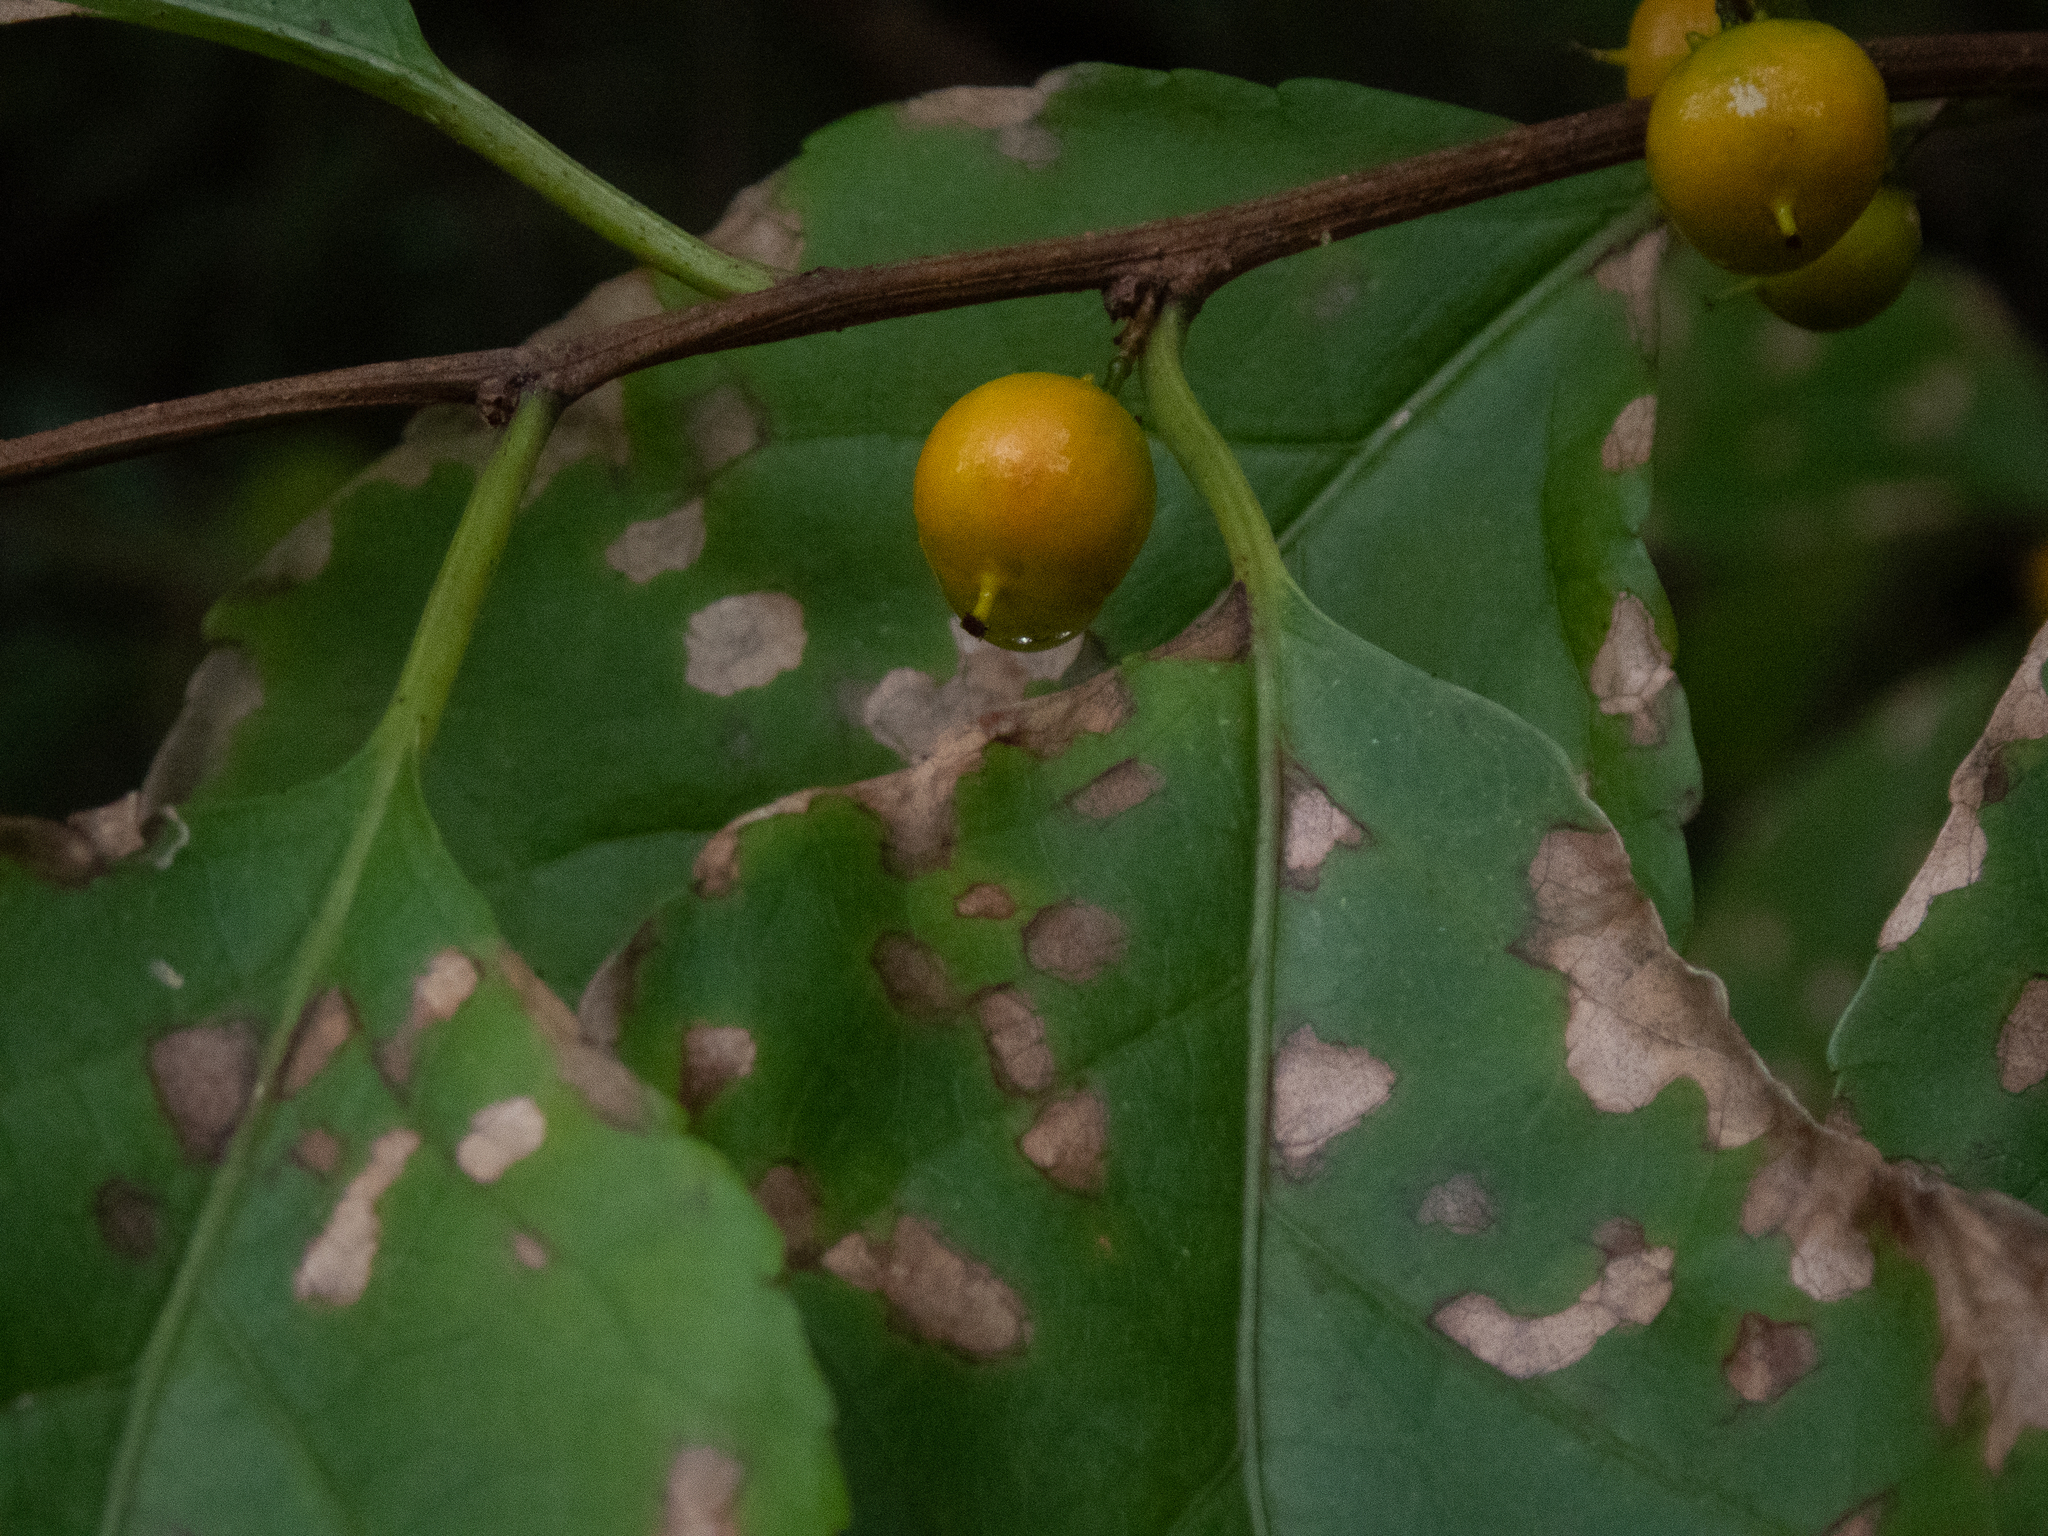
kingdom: Plantae
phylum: Tracheophyta
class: Magnoliopsida
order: Celastrales
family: Celastraceae
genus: Celastrus
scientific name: Celastrus orbiculatus
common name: Oriental bittersweet
